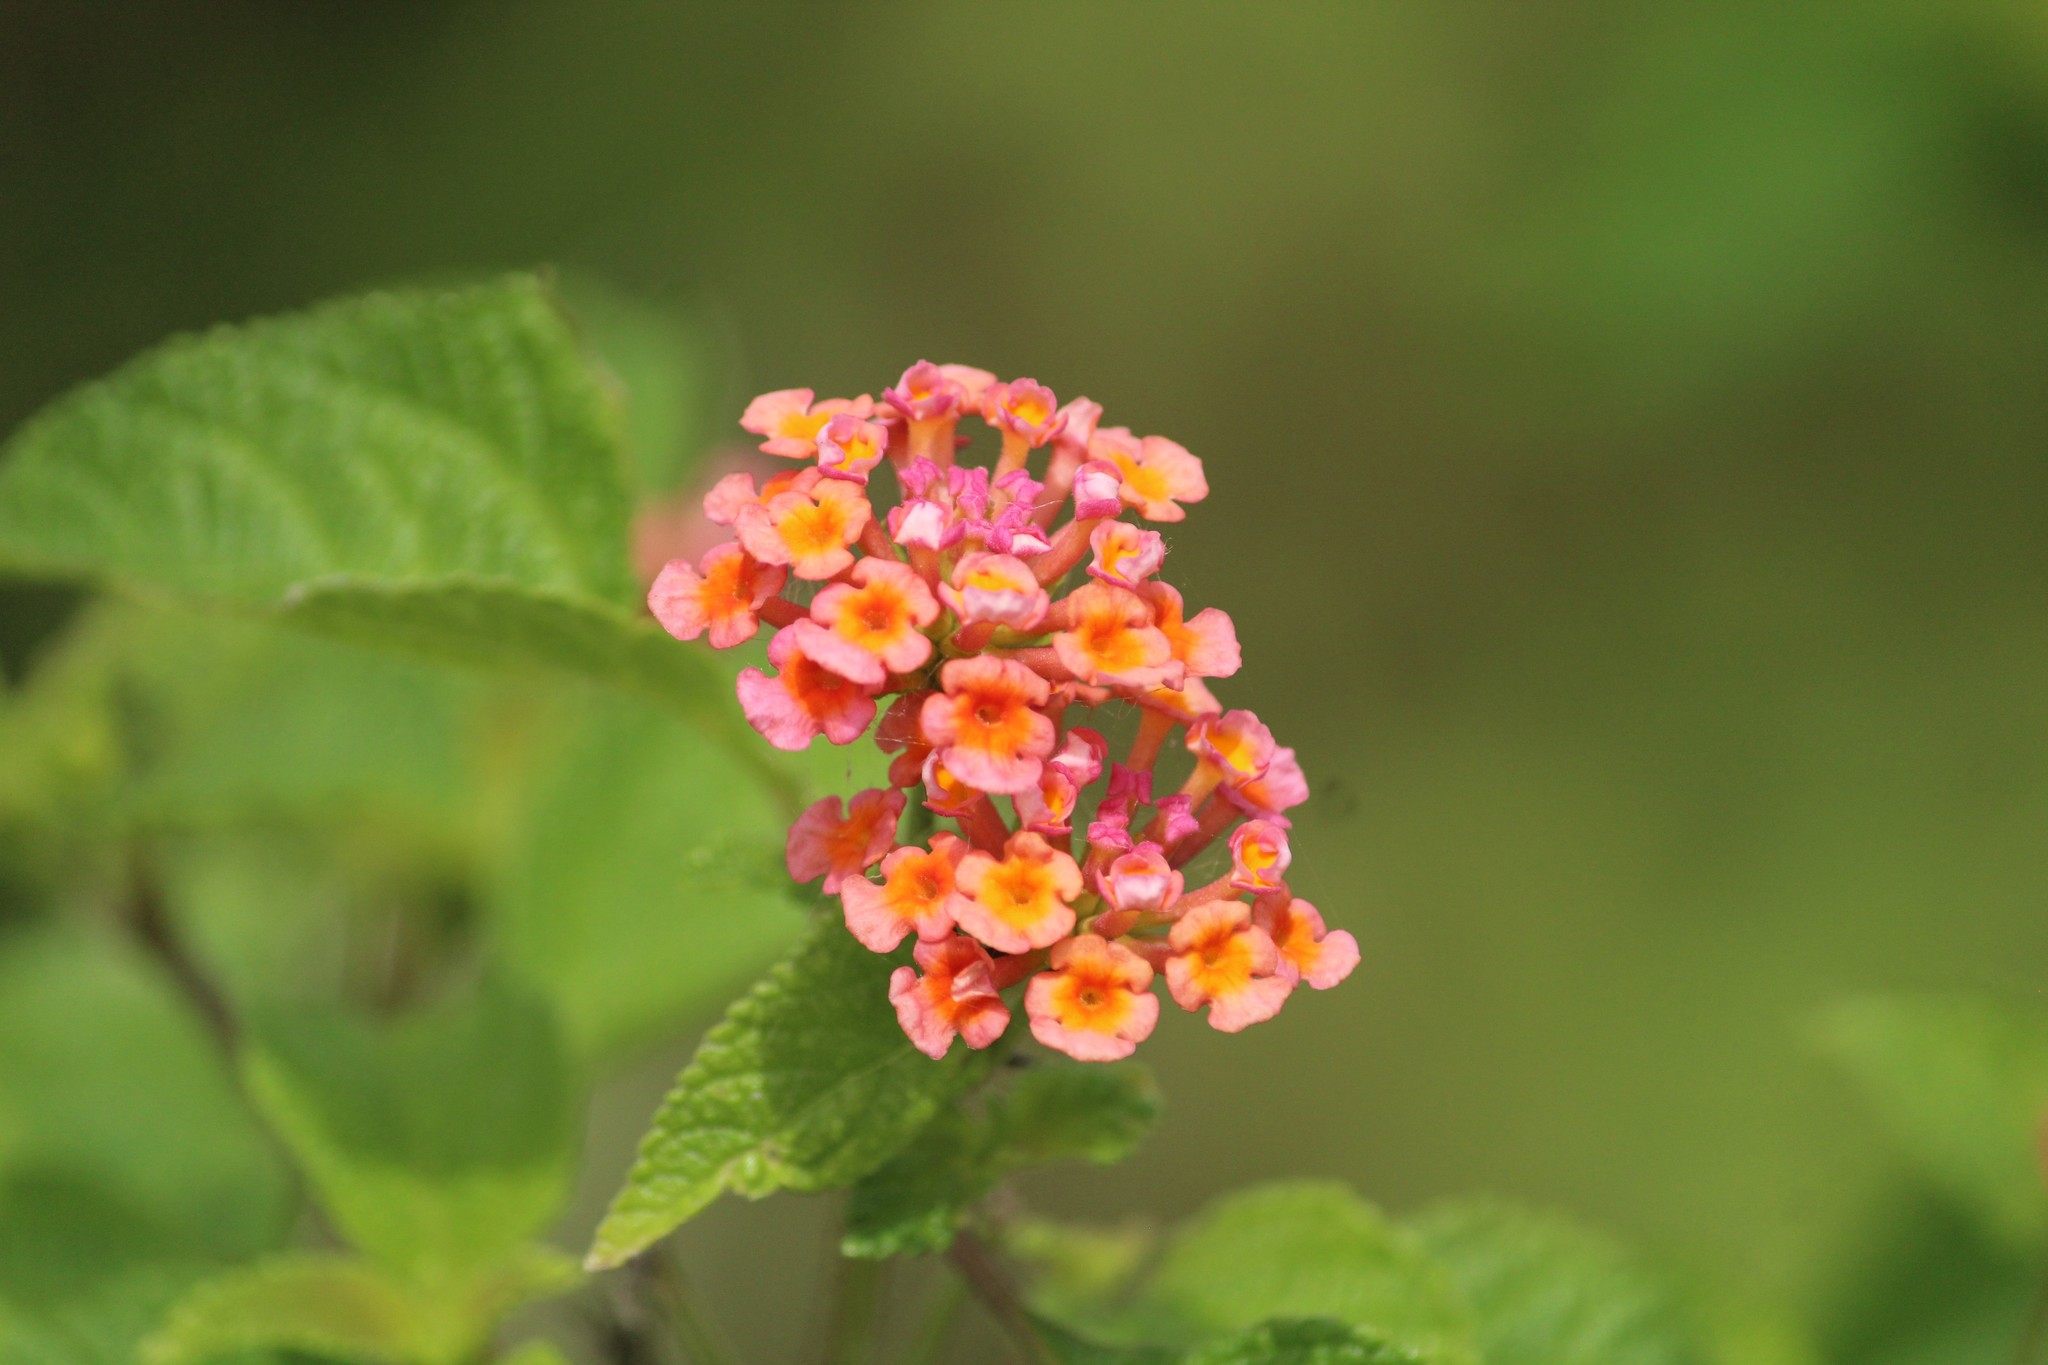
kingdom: Plantae
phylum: Tracheophyta
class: Magnoliopsida
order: Lamiales
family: Verbenaceae
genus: Lantana
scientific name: Lantana camara
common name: Lantana
